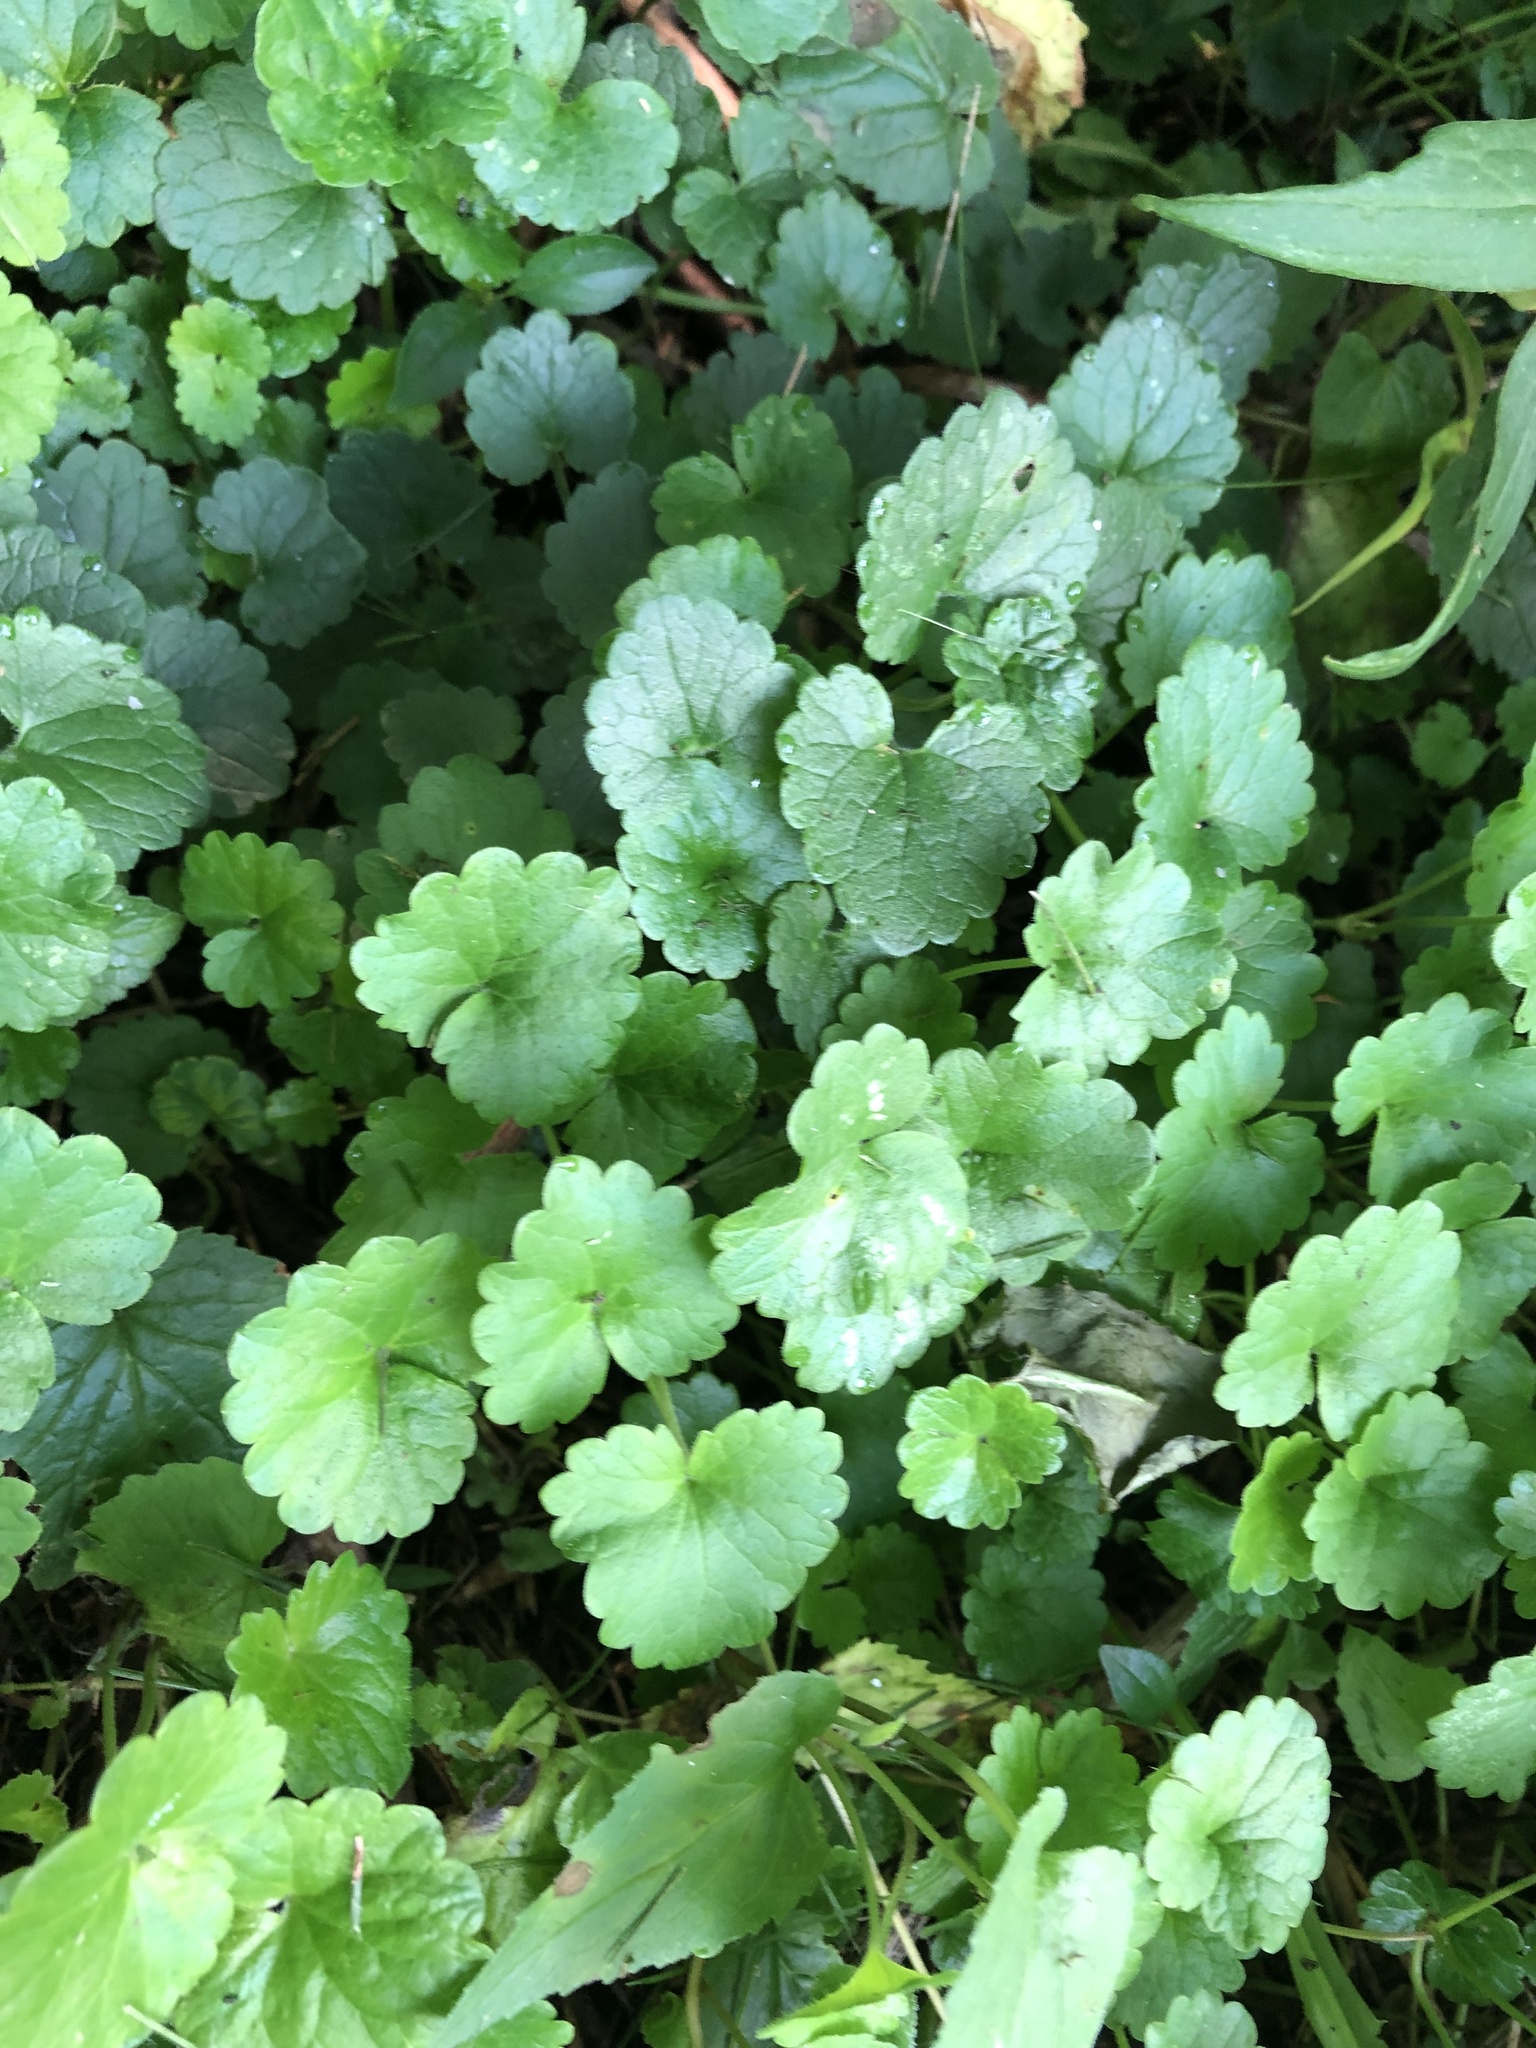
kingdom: Plantae
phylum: Tracheophyta
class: Magnoliopsida
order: Lamiales
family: Lamiaceae
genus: Glechoma
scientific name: Glechoma hederacea
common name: Ground ivy
